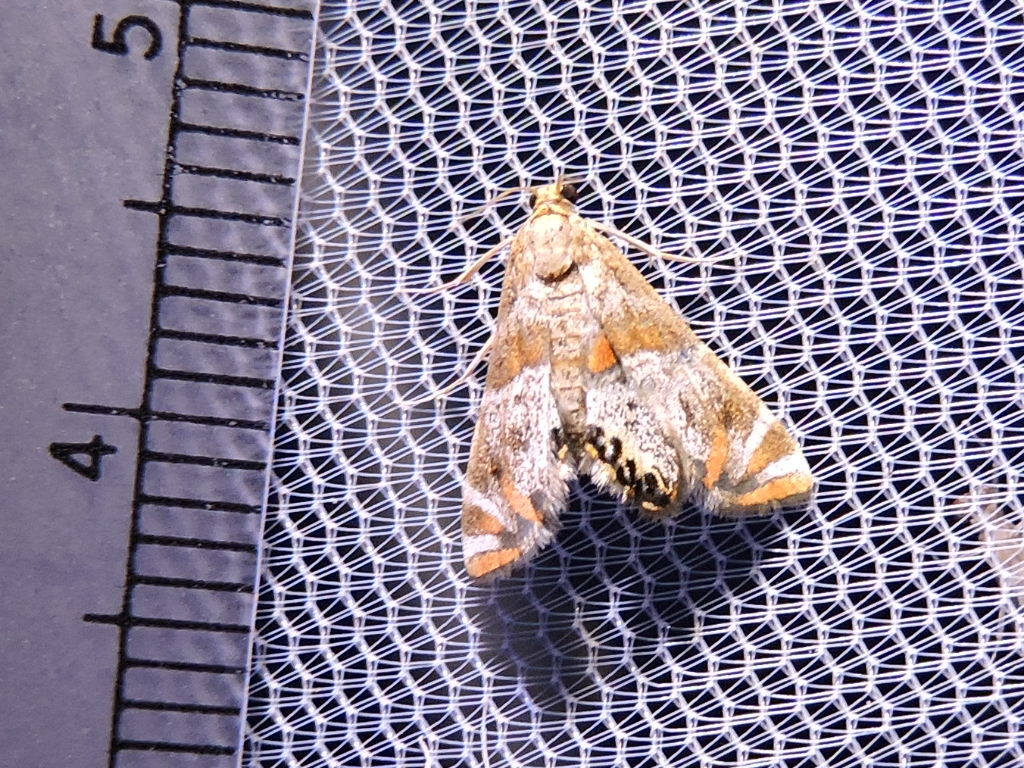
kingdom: Animalia
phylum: Arthropoda
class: Insecta
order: Lepidoptera
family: Crambidae
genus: Petrophila
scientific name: Petrophila jaliscalis
